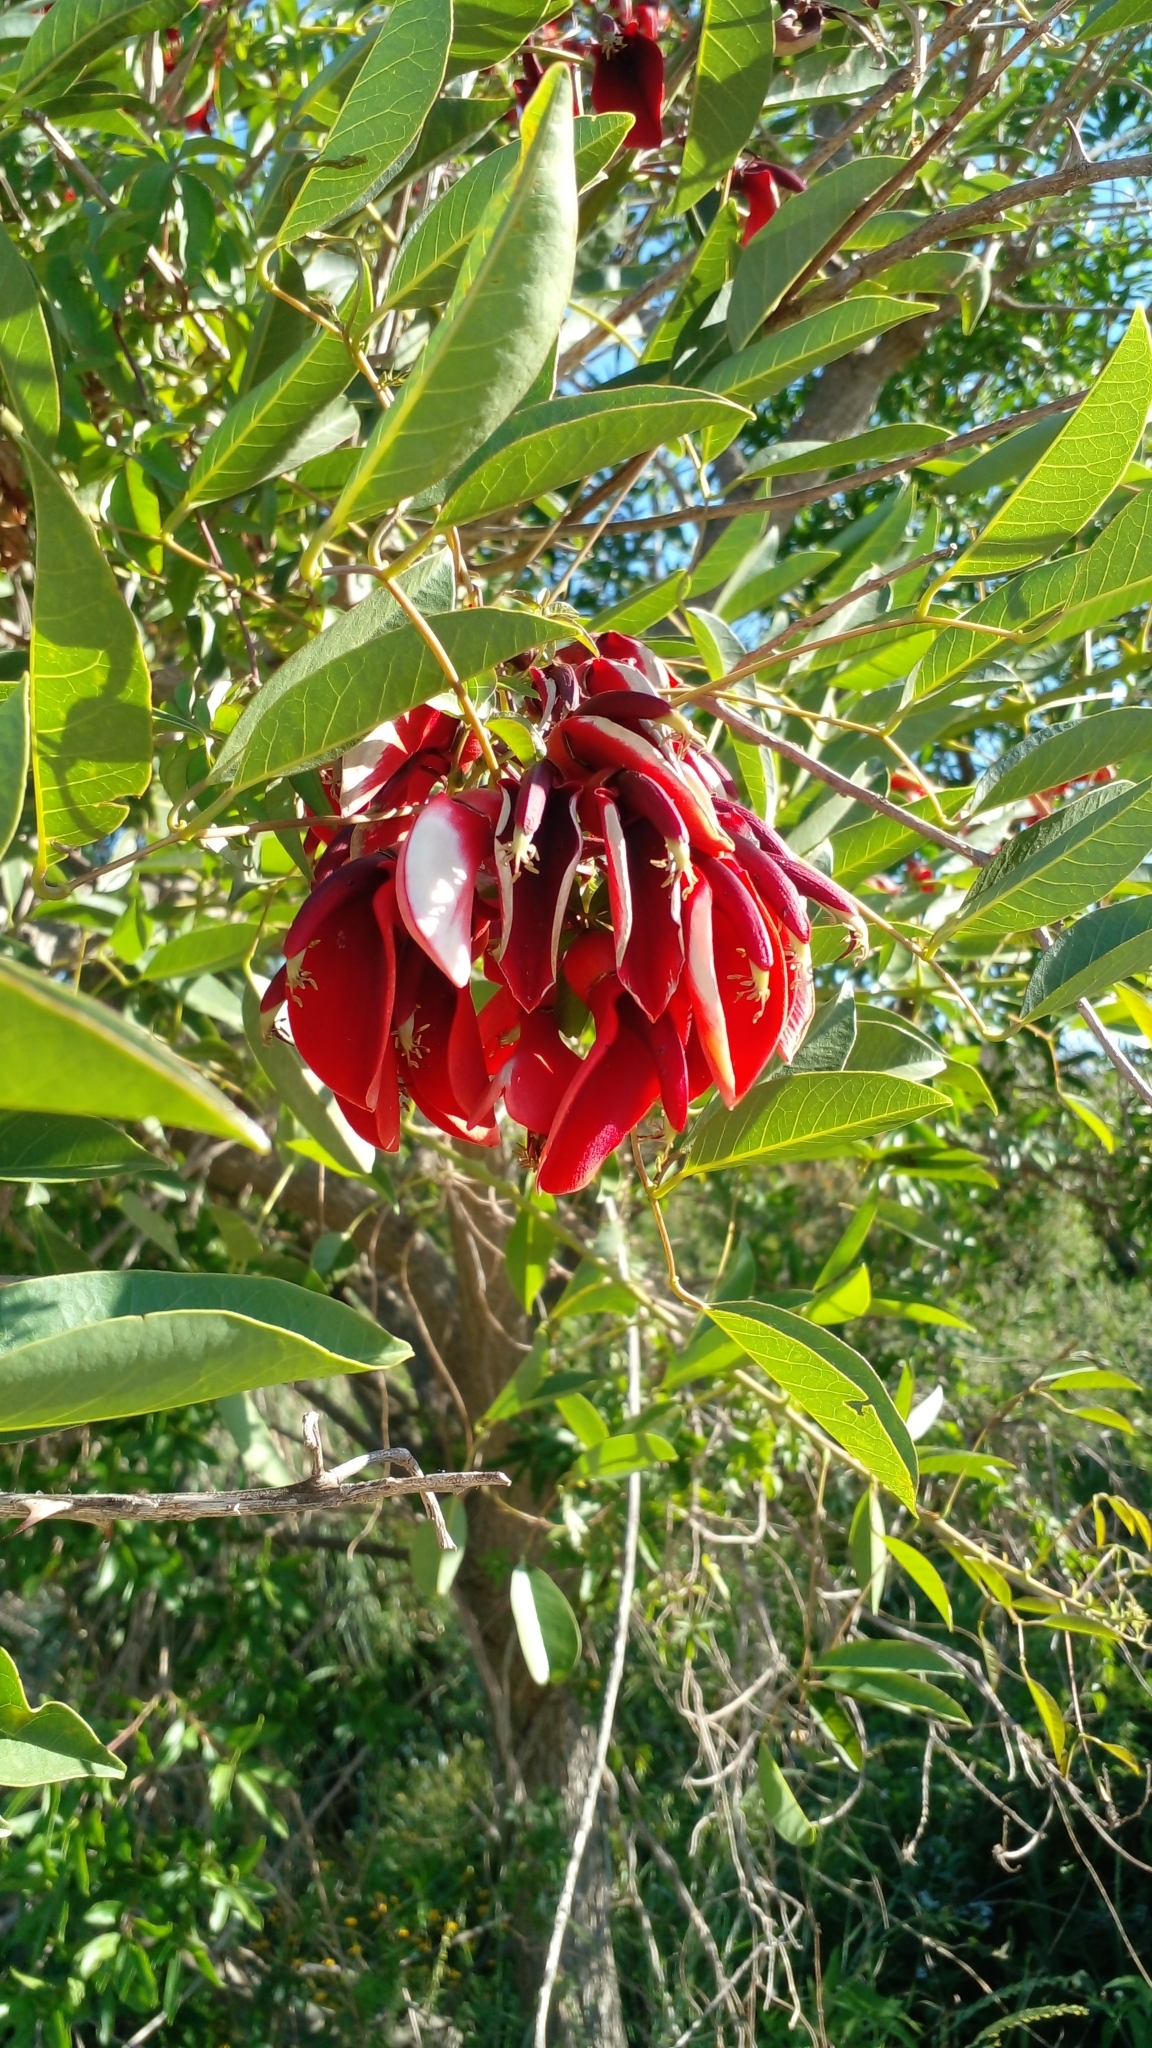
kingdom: Plantae
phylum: Tracheophyta
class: Magnoliopsida
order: Fabales
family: Fabaceae
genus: Erythrina
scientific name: Erythrina crista-galli
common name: Cockspur coral tree
